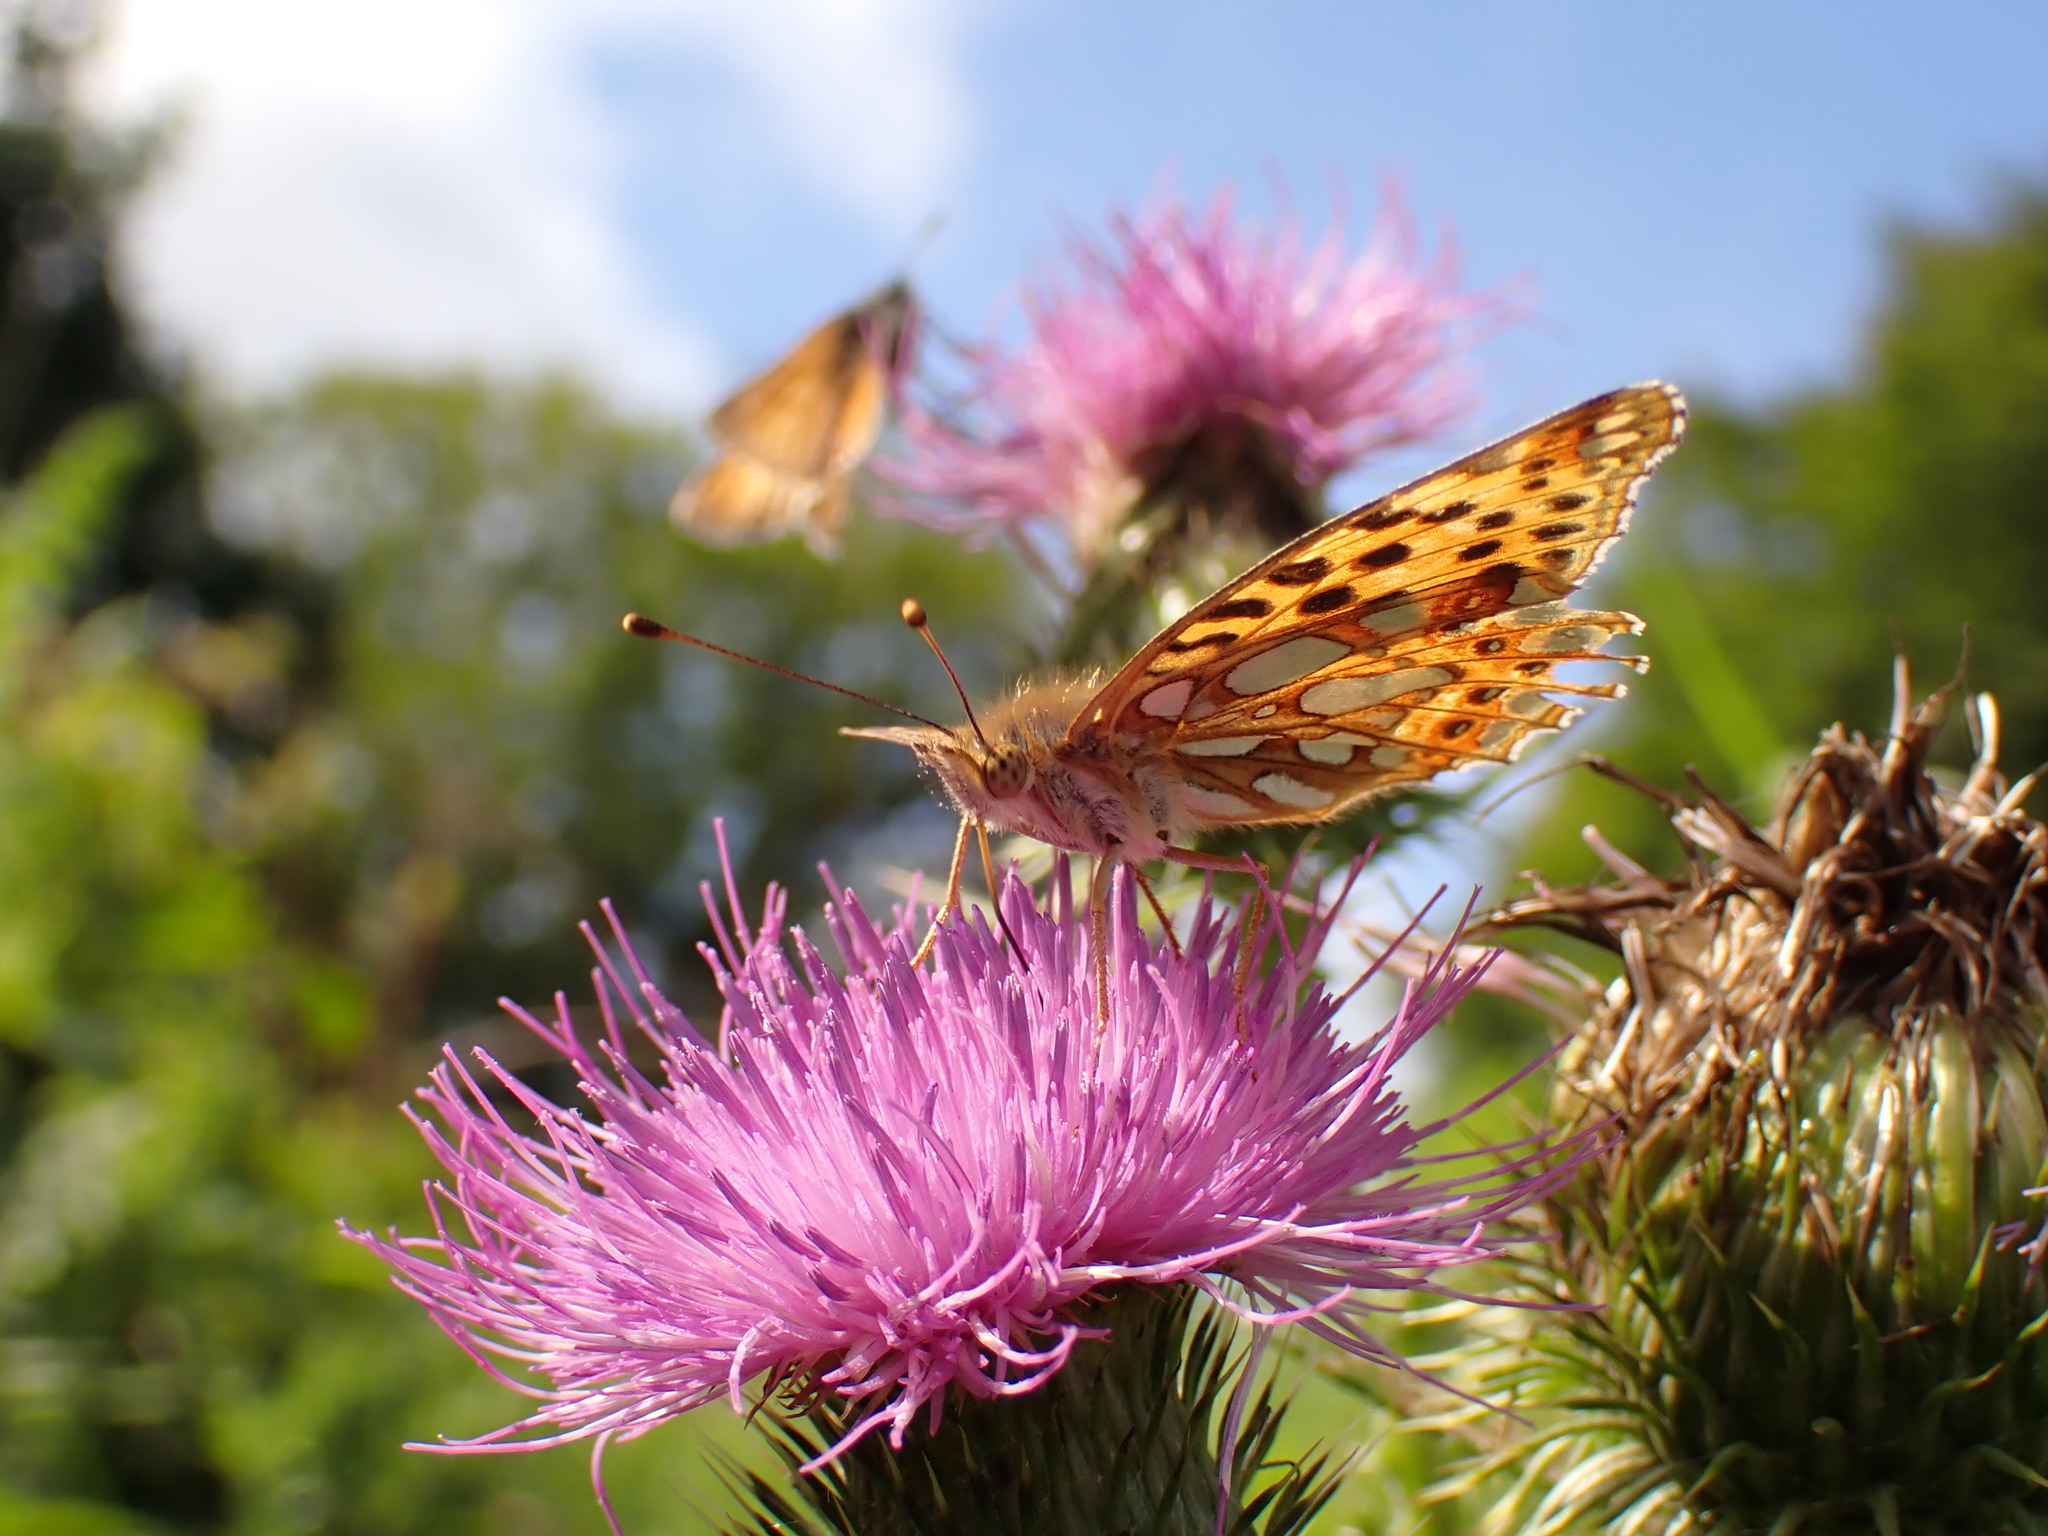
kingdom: Animalia
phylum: Arthropoda
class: Insecta
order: Lepidoptera
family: Nymphalidae
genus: Issoria
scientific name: Issoria lathonia
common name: Queen of spain fritillary
